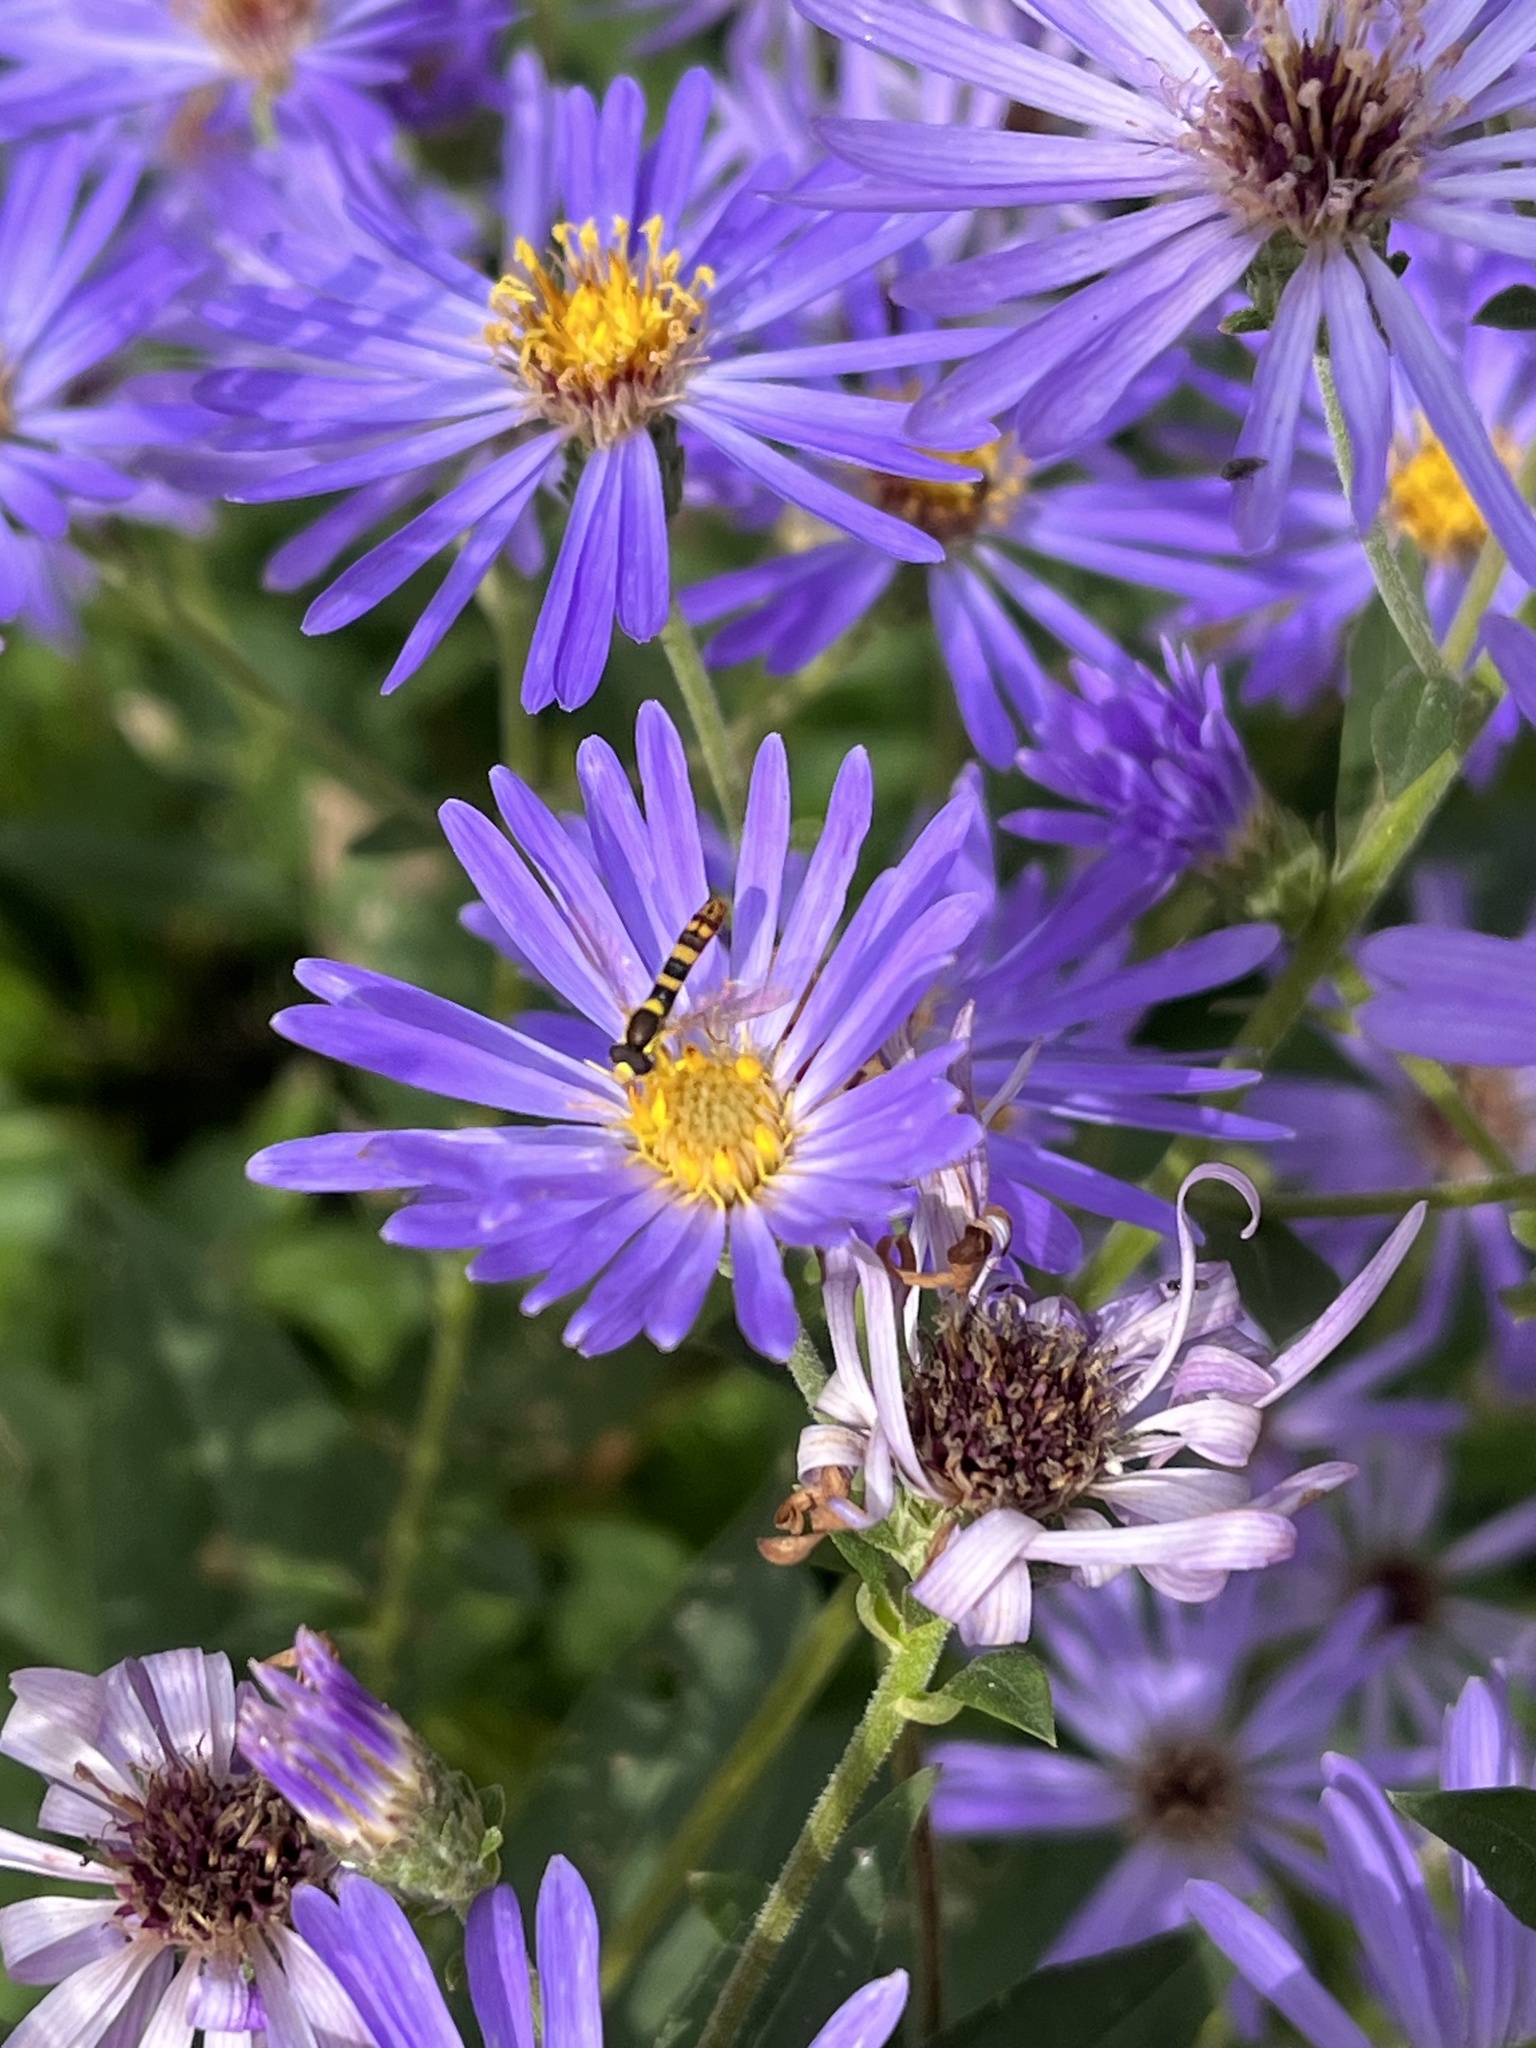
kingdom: Animalia
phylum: Arthropoda
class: Insecta
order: Diptera
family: Syrphidae
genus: Sphaerophoria
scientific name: Sphaerophoria scripta
